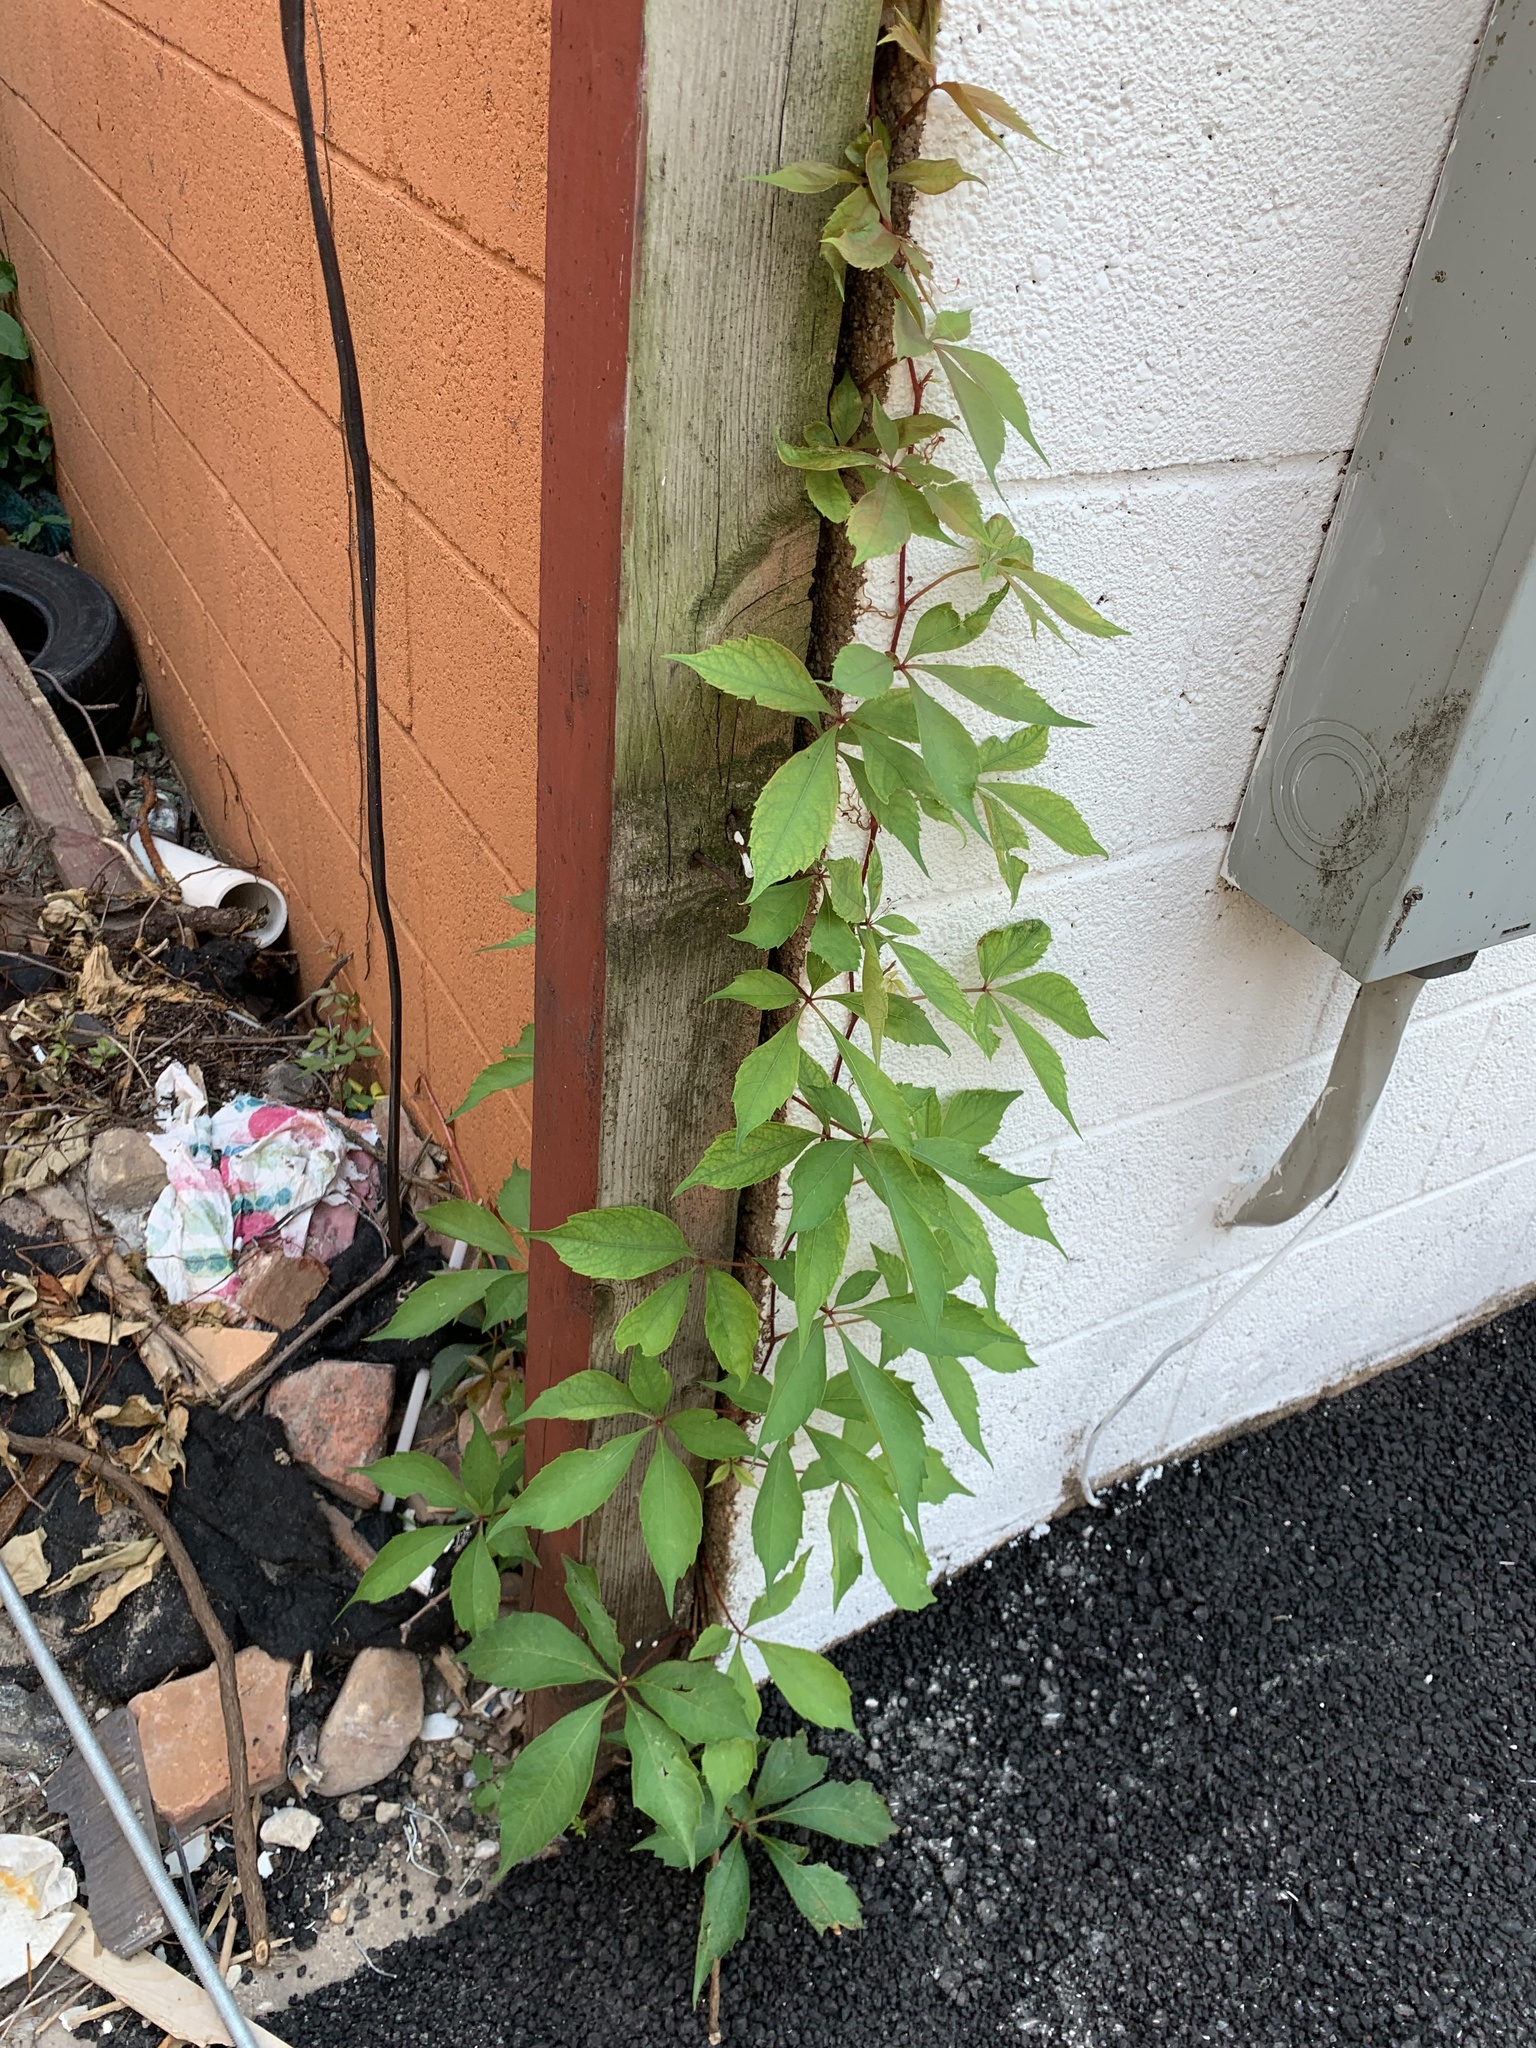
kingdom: Plantae
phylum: Tracheophyta
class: Magnoliopsida
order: Vitales
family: Vitaceae
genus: Parthenocissus
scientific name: Parthenocissus quinquefolia
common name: Virginia-creeper
